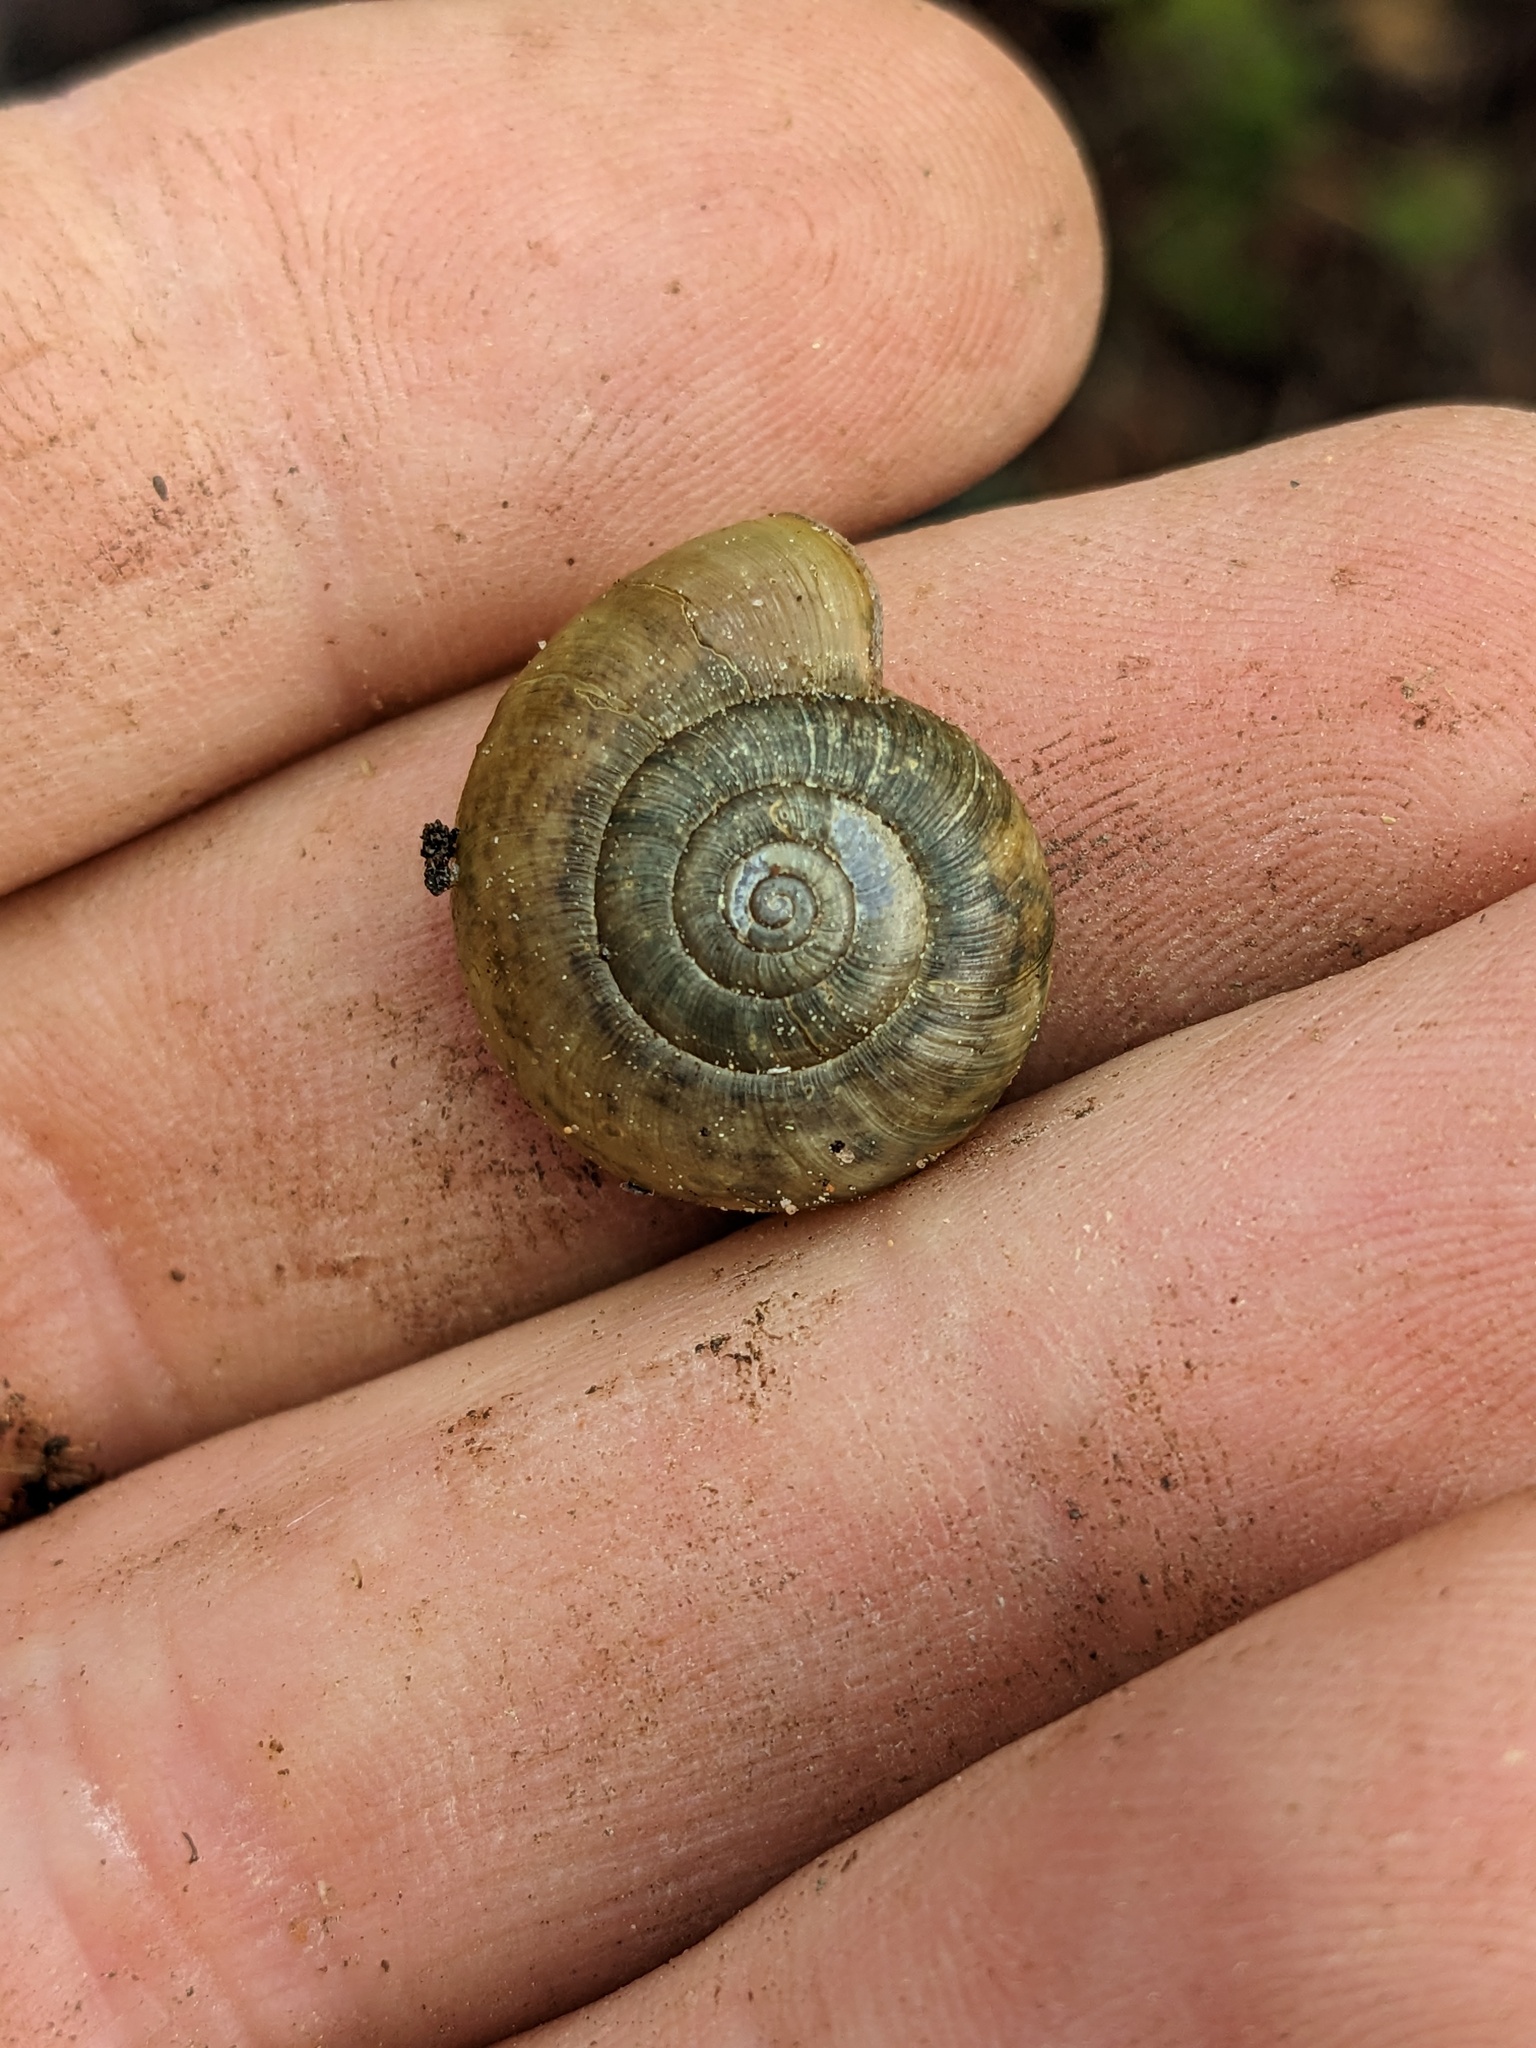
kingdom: Animalia
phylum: Mollusca
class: Gastropoda
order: Stylommatophora
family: Haplotrematidae
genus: Haplotrema
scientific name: Haplotrema minimum
